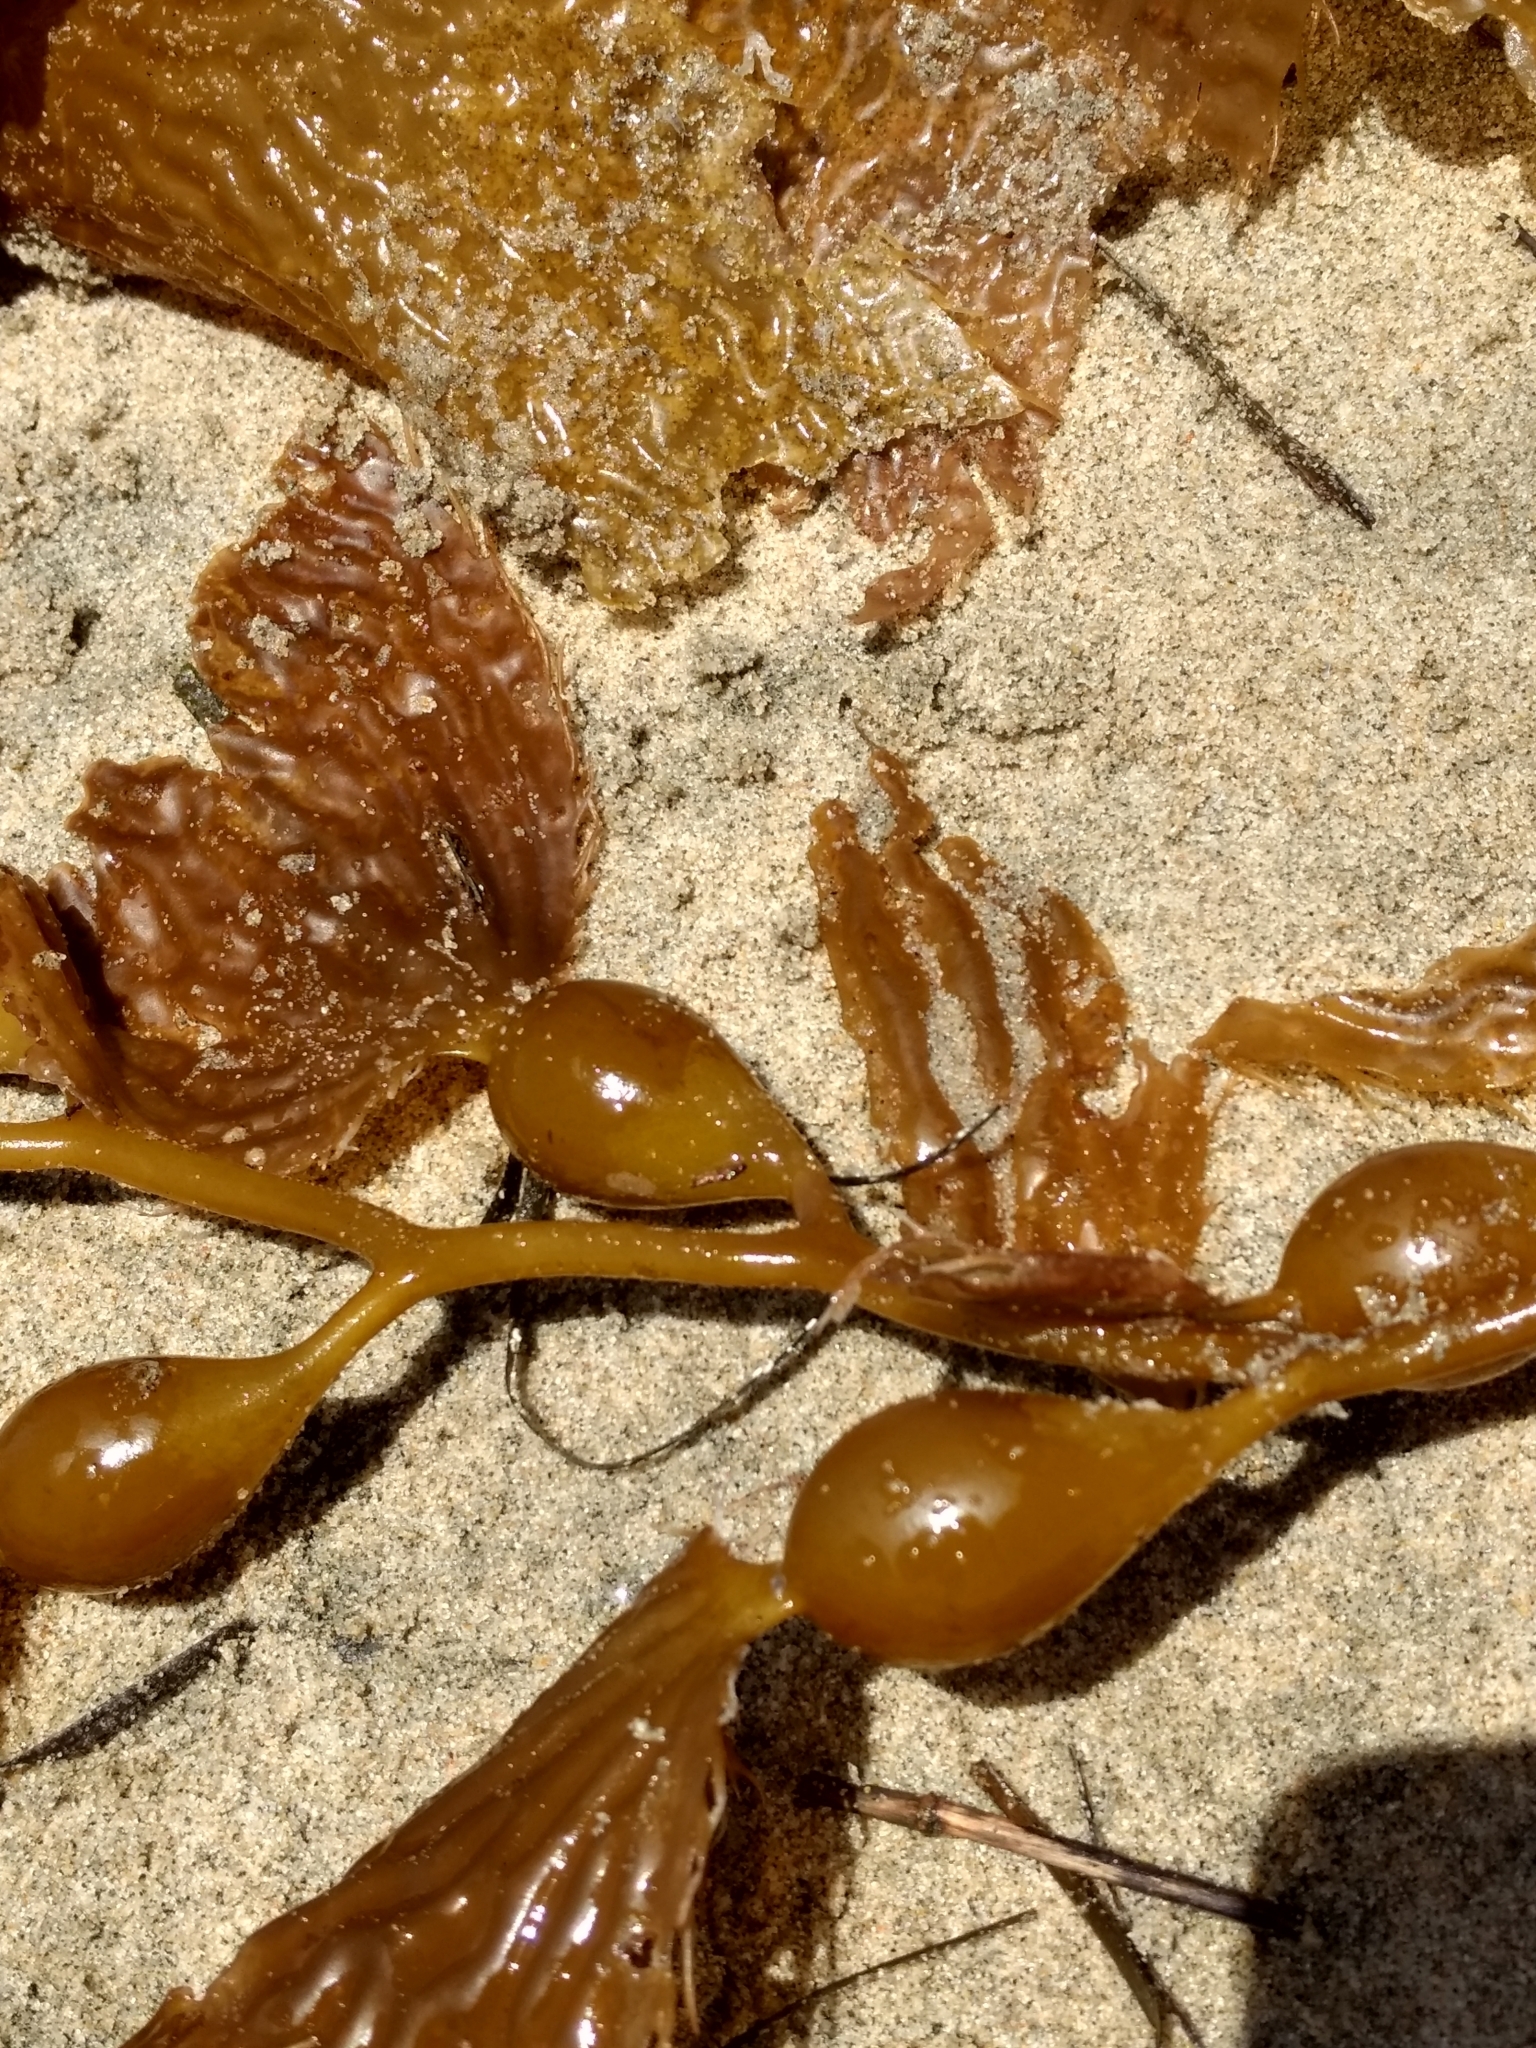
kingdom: Chromista
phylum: Ochrophyta
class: Phaeophyceae
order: Laminariales
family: Laminariaceae
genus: Macrocystis
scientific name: Macrocystis pyrifera
